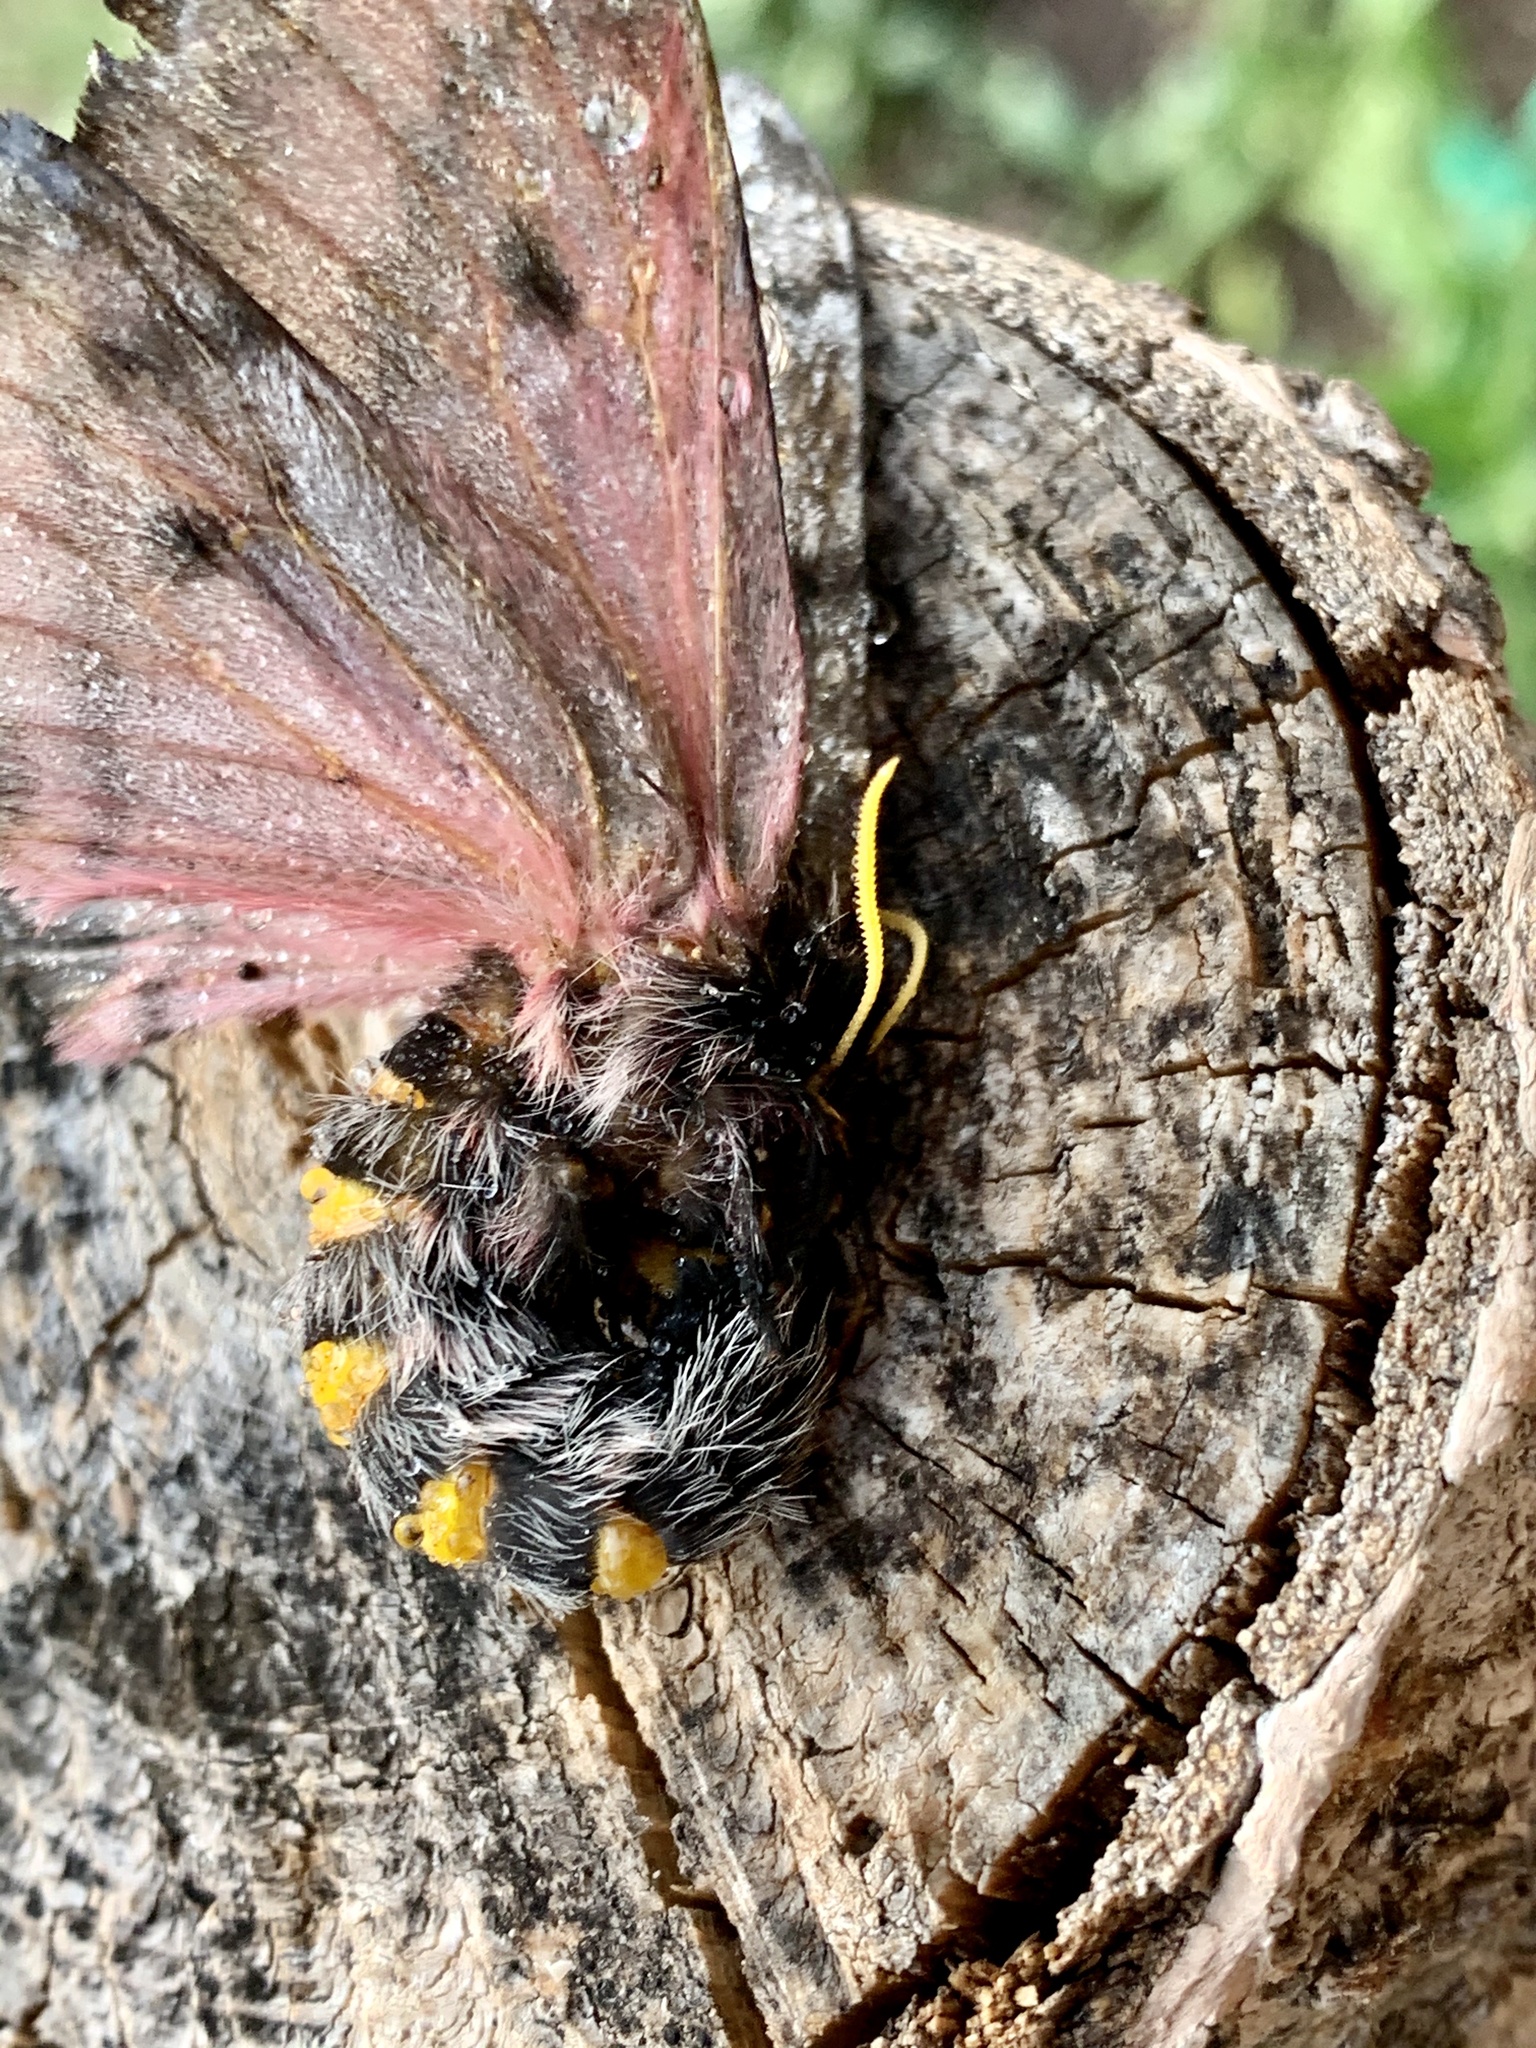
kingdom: Animalia
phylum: Arthropoda
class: Insecta
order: Lepidoptera
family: Saturniidae
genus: Coloradia
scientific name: Coloradia pandora
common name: Pandora pinemoth
